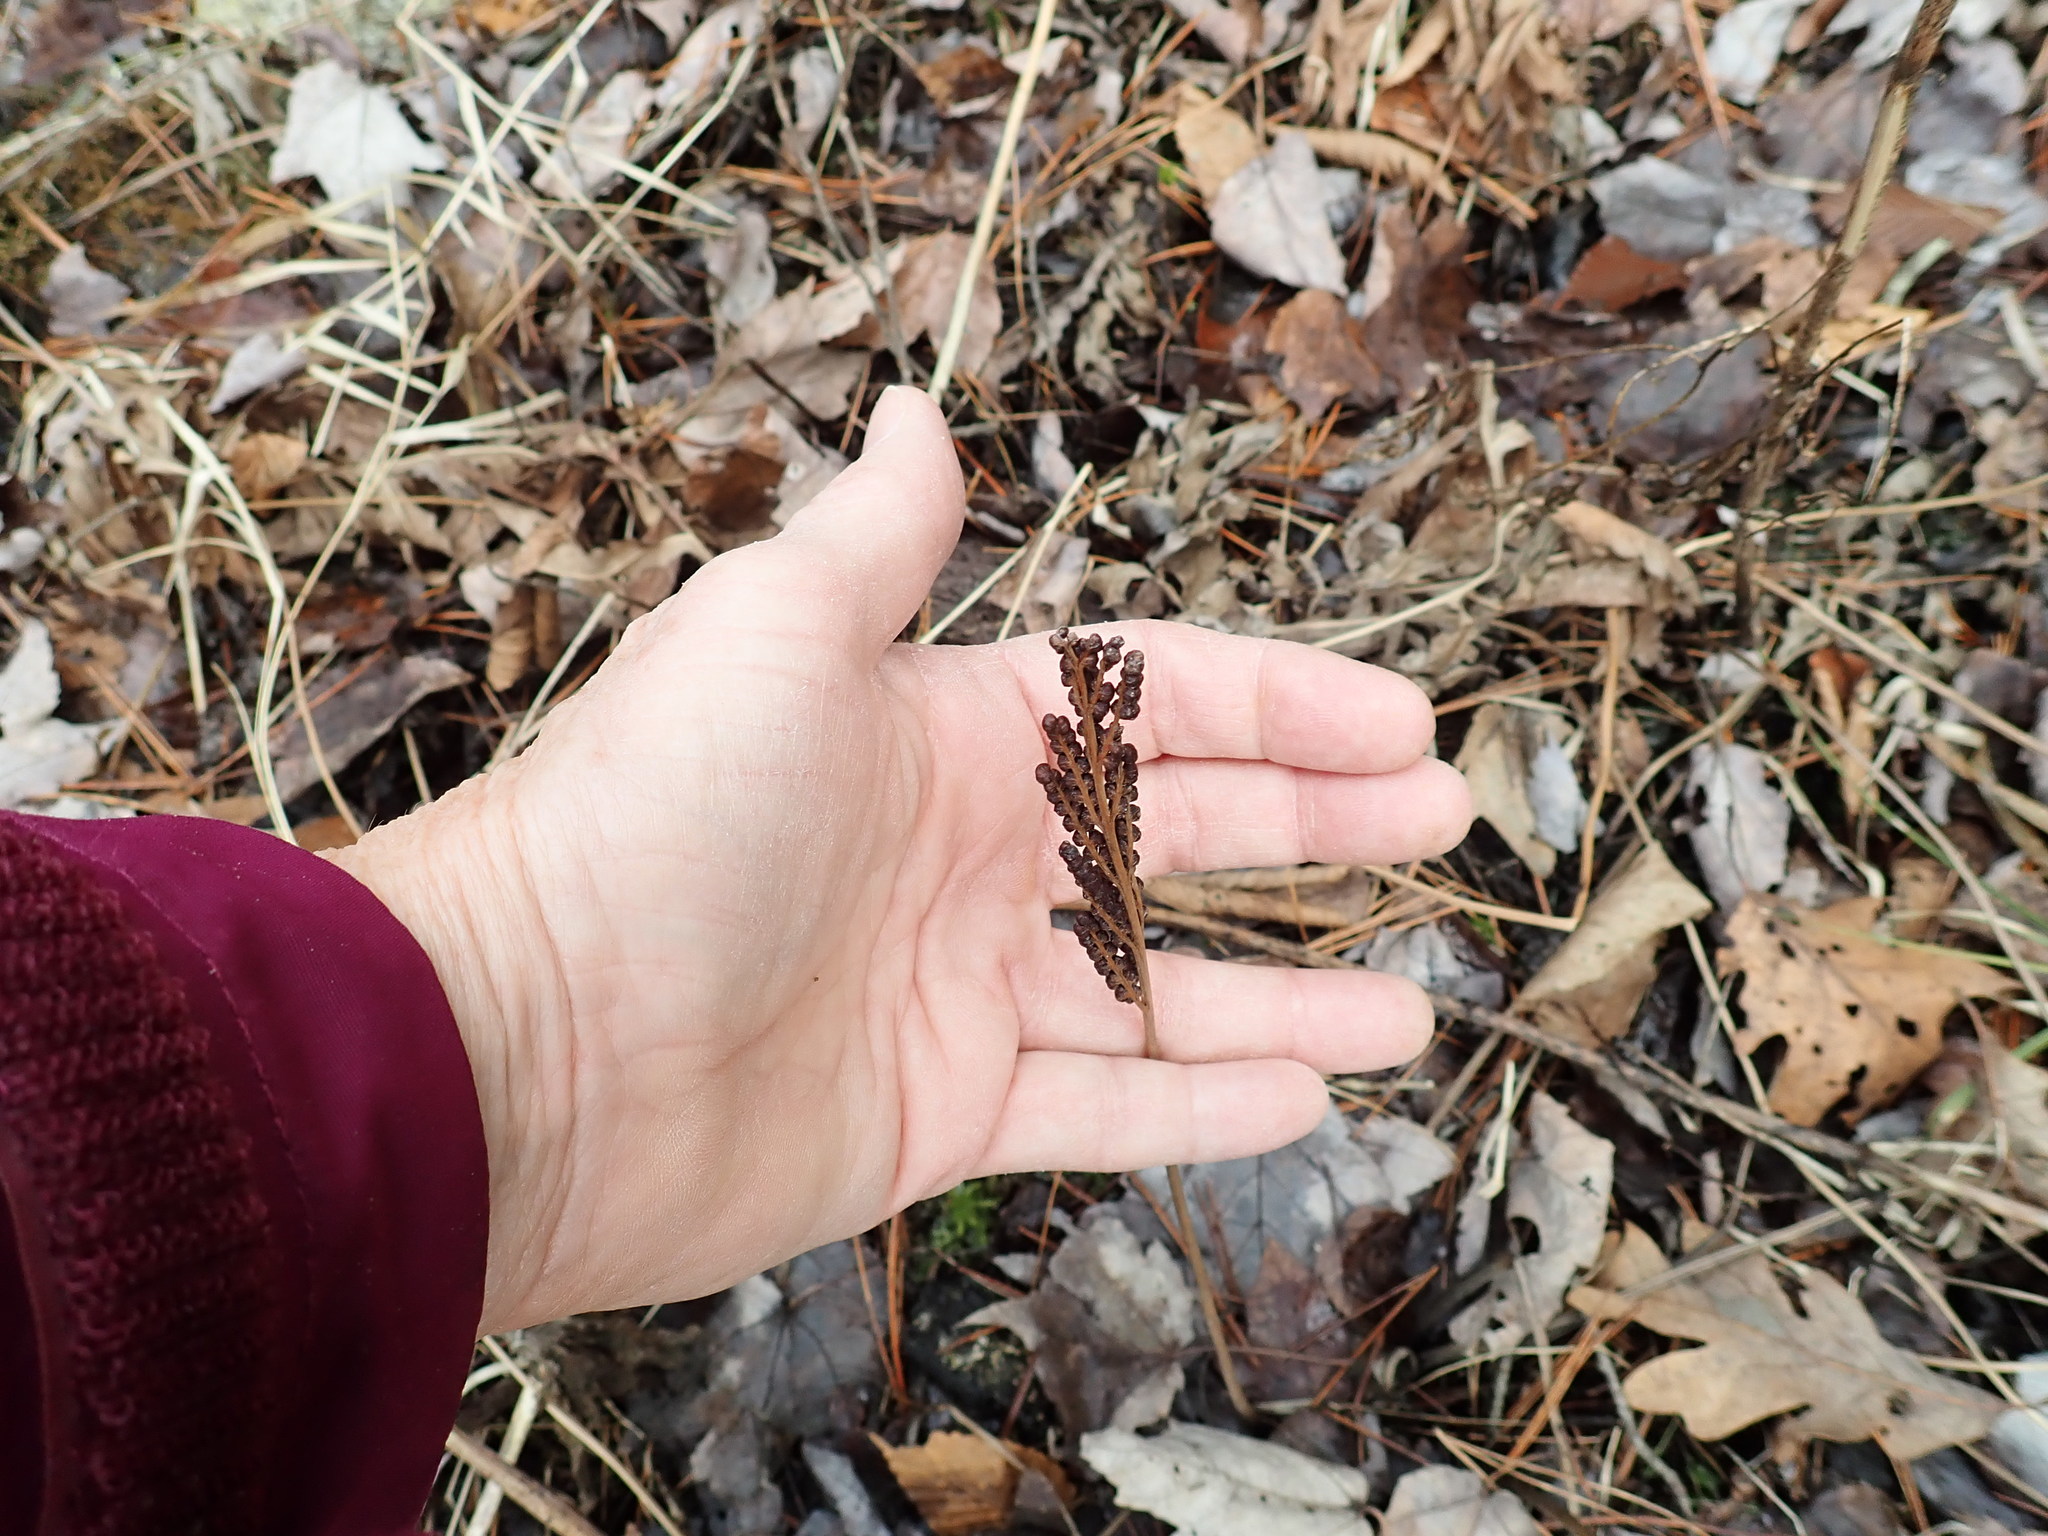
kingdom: Plantae
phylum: Tracheophyta
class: Polypodiopsida
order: Polypodiales
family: Onocleaceae
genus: Onoclea
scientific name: Onoclea sensibilis
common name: Sensitive fern
